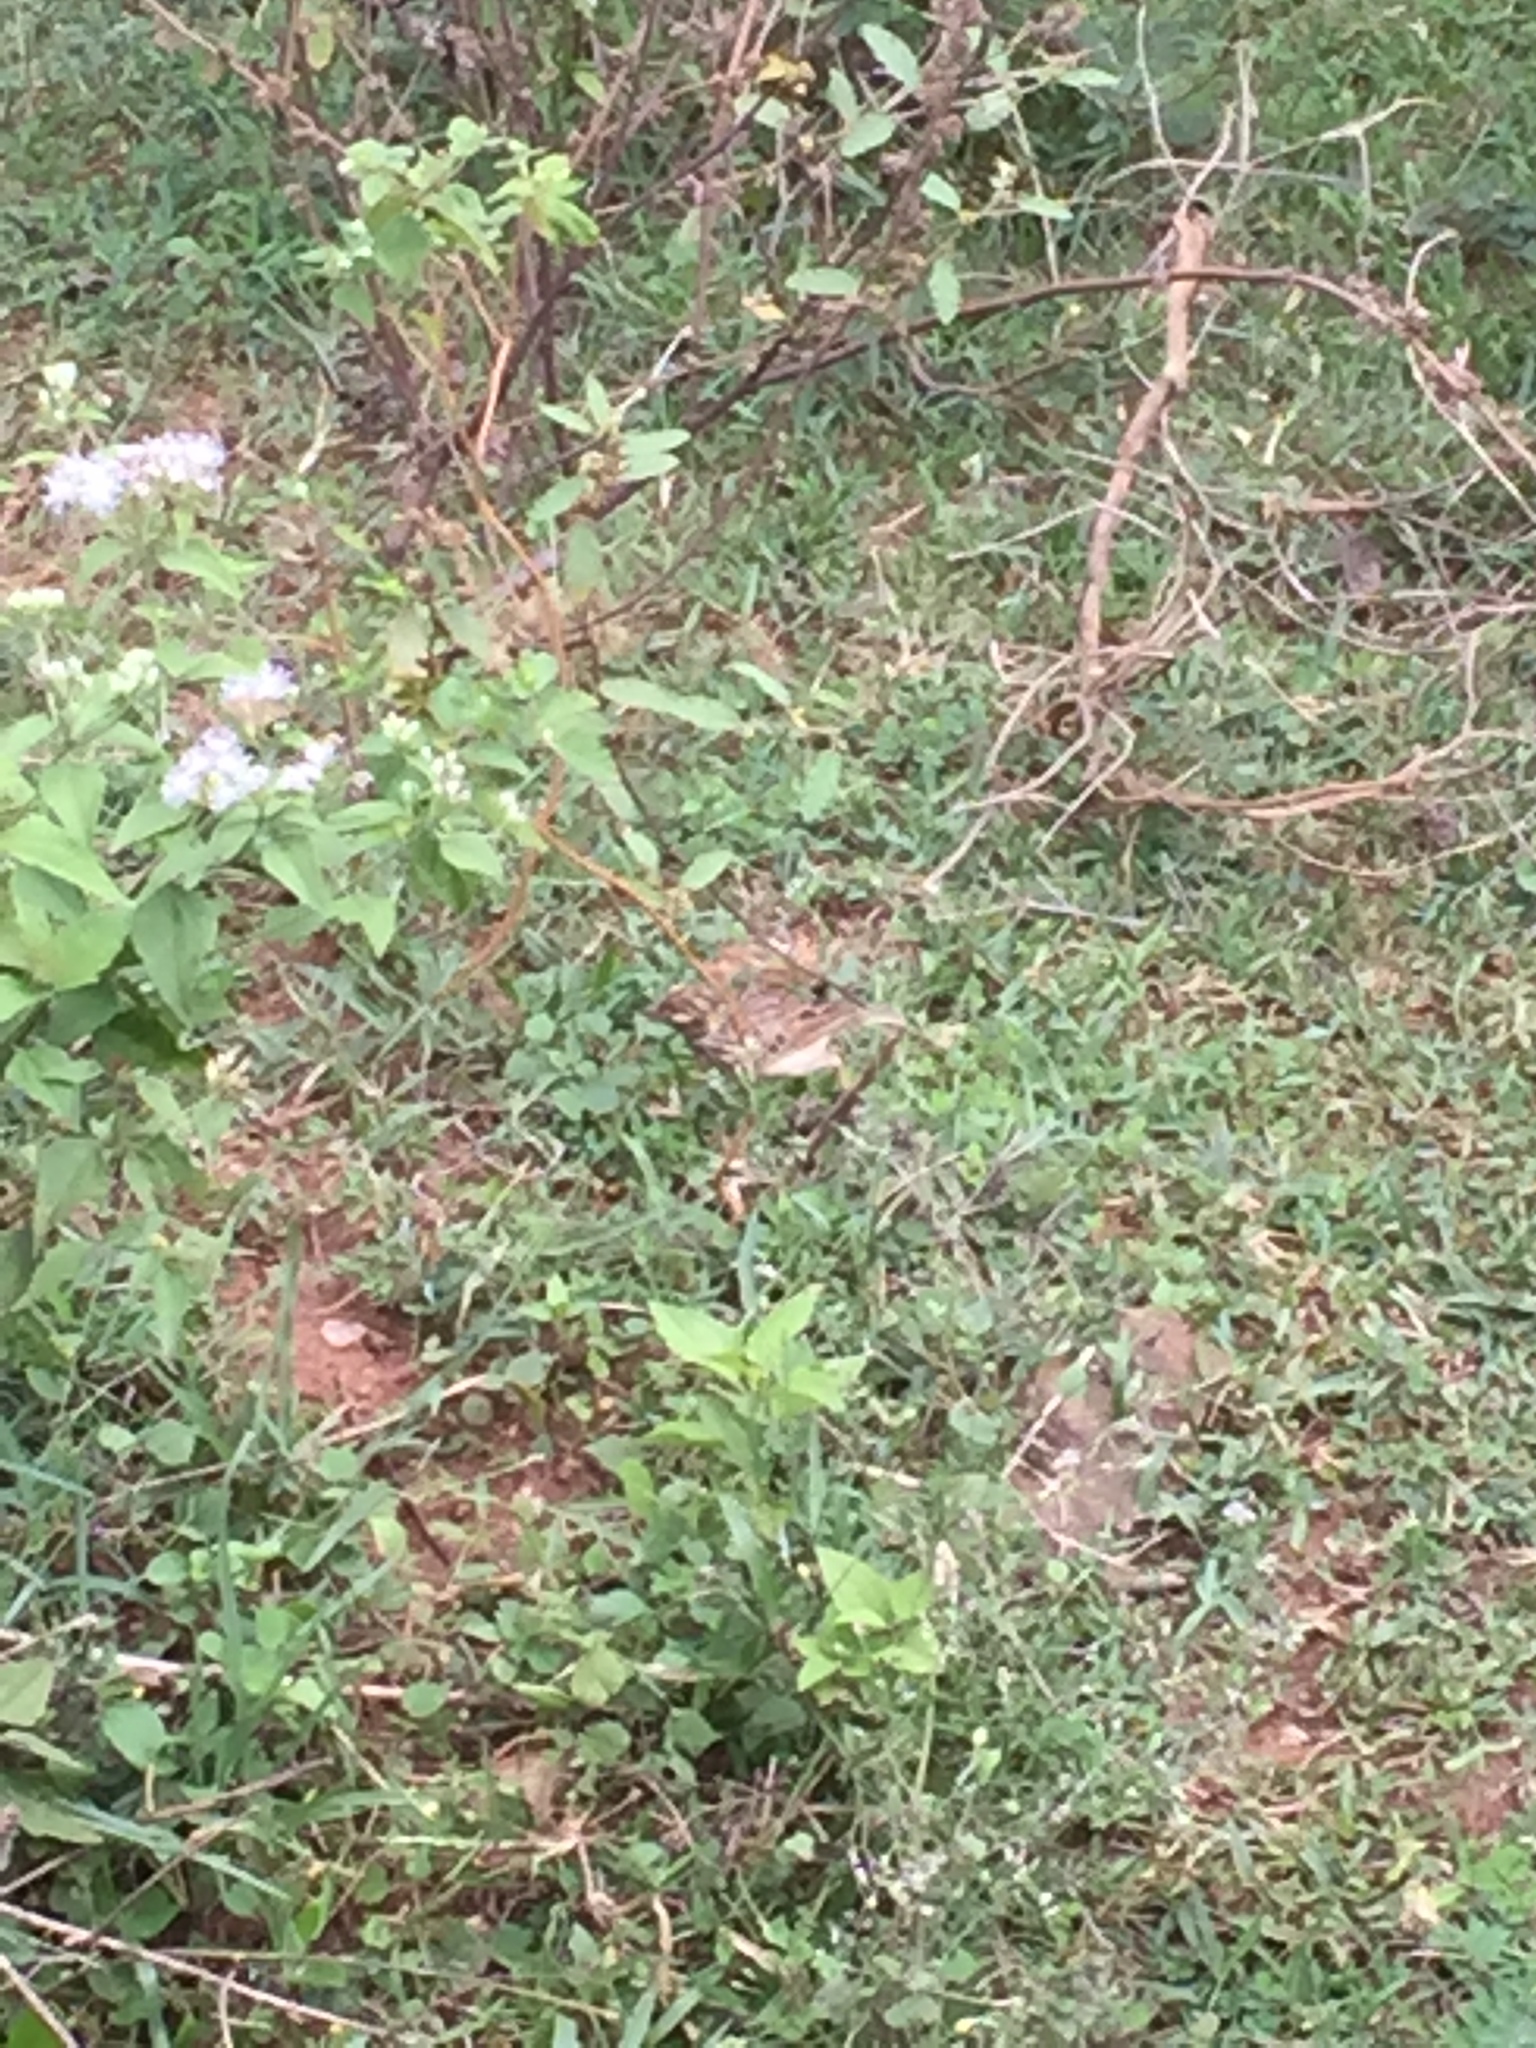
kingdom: Animalia
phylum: Chordata
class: Aves
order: Passeriformes
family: Alaudidae
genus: Mirafra
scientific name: Mirafra affinis
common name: Jerdon's bushlark
